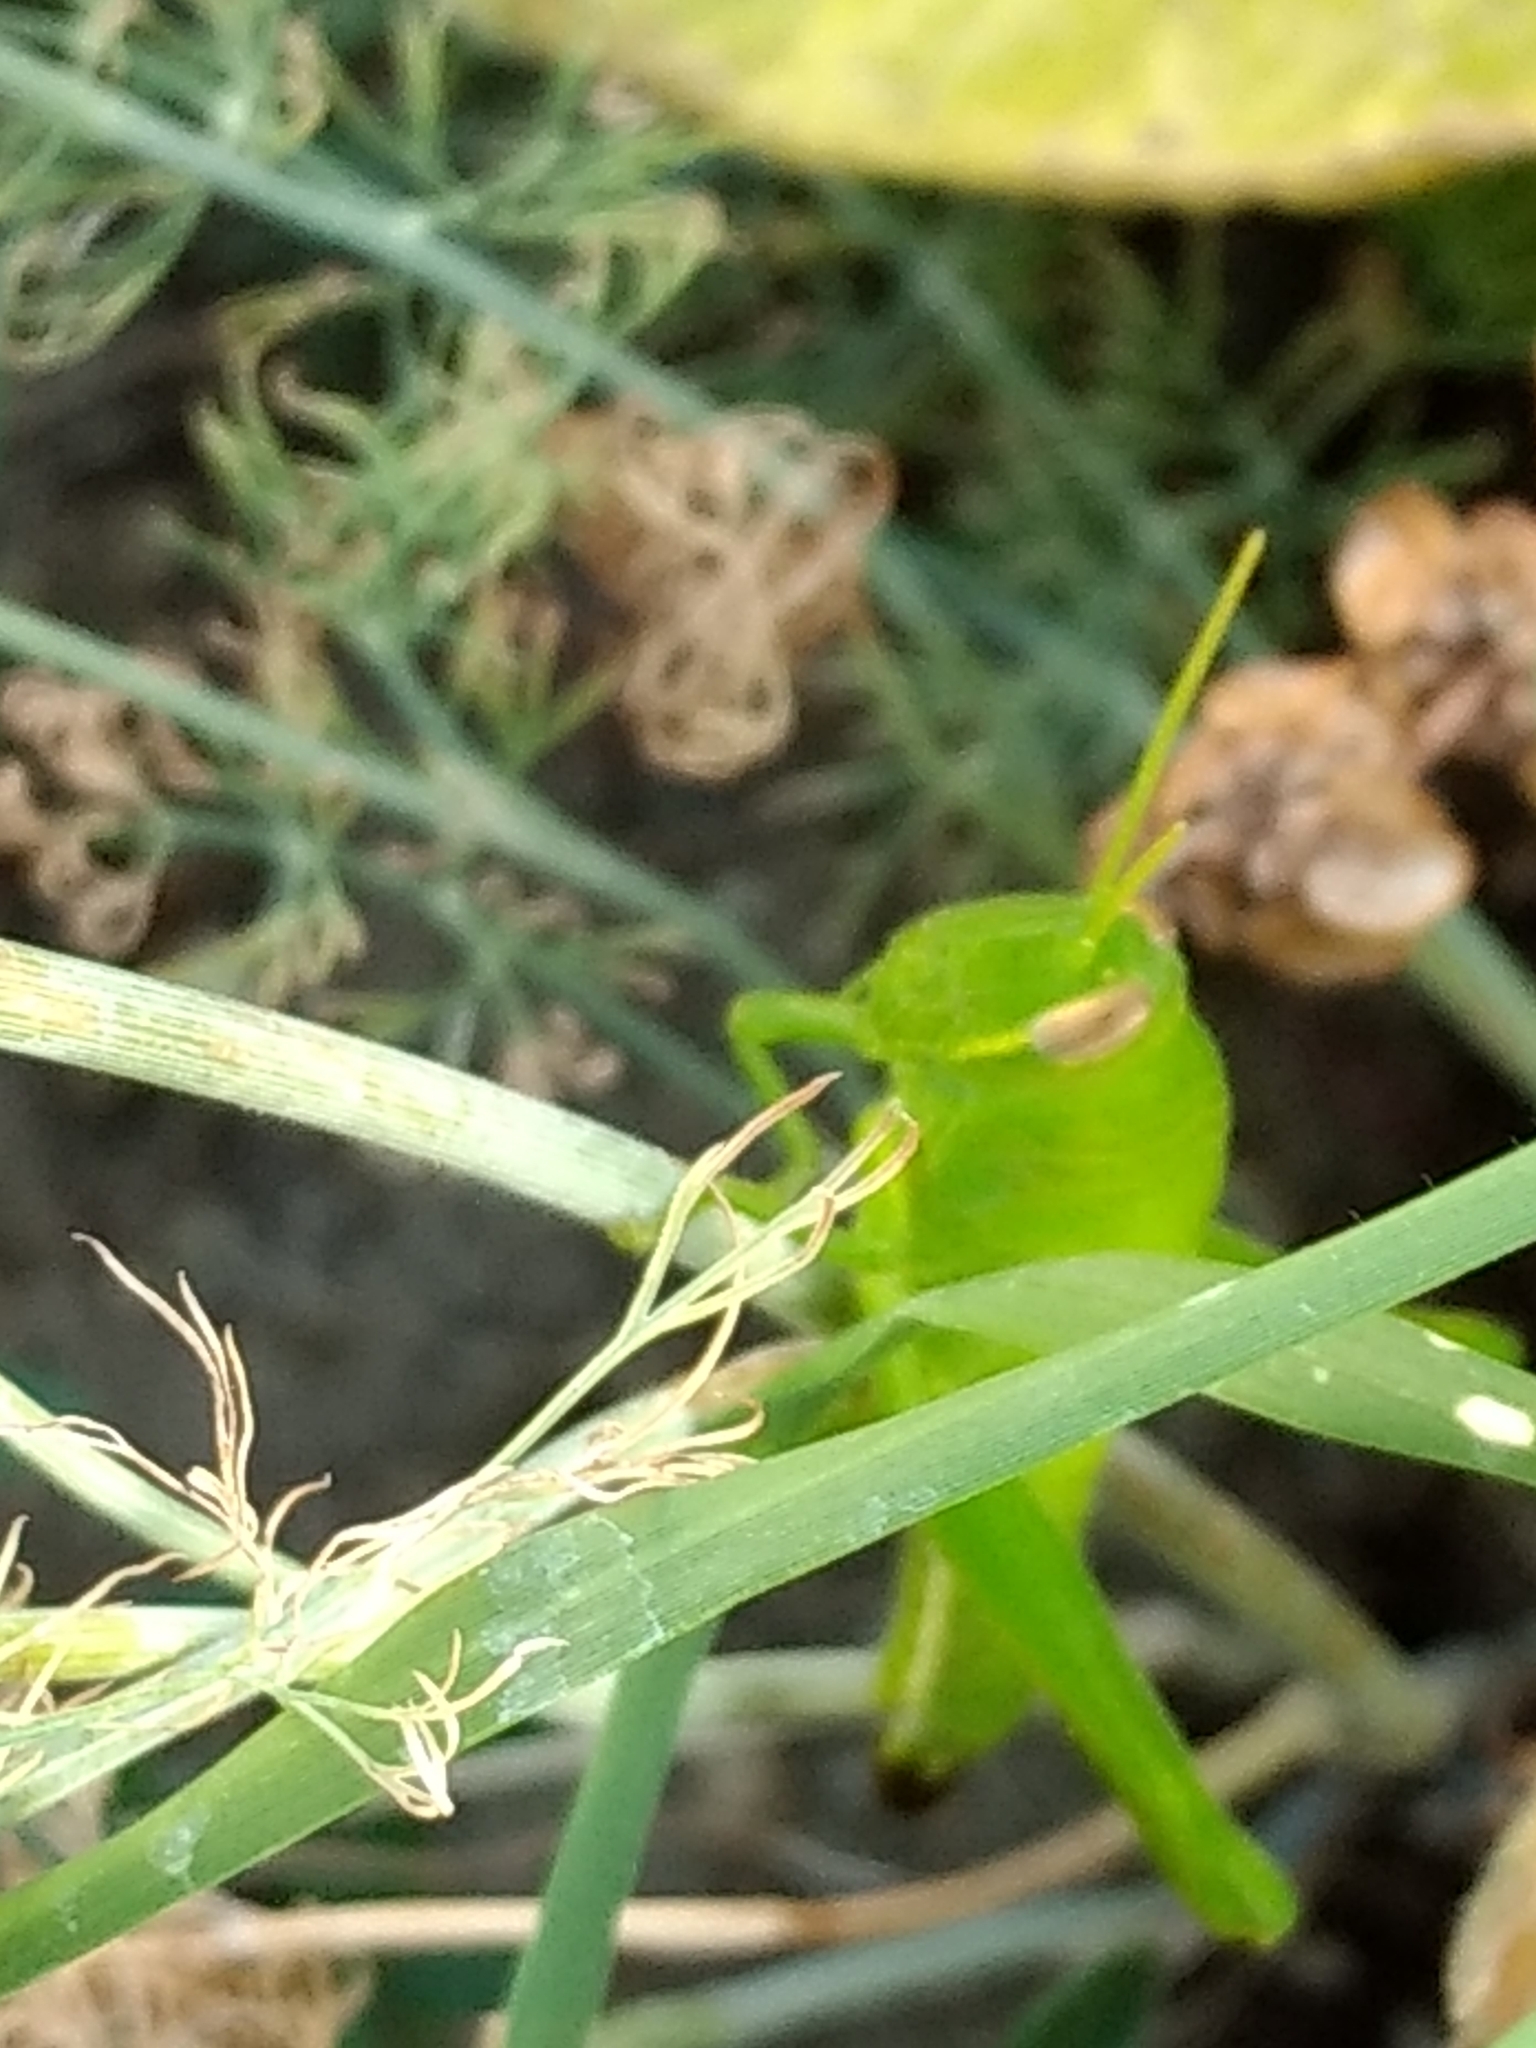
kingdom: Animalia
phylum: Arthropoda
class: Insecta
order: Orthoptera
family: Acrididae
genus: Schistocerca
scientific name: Schistocerca nitens
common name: Vagrant grasshopper
